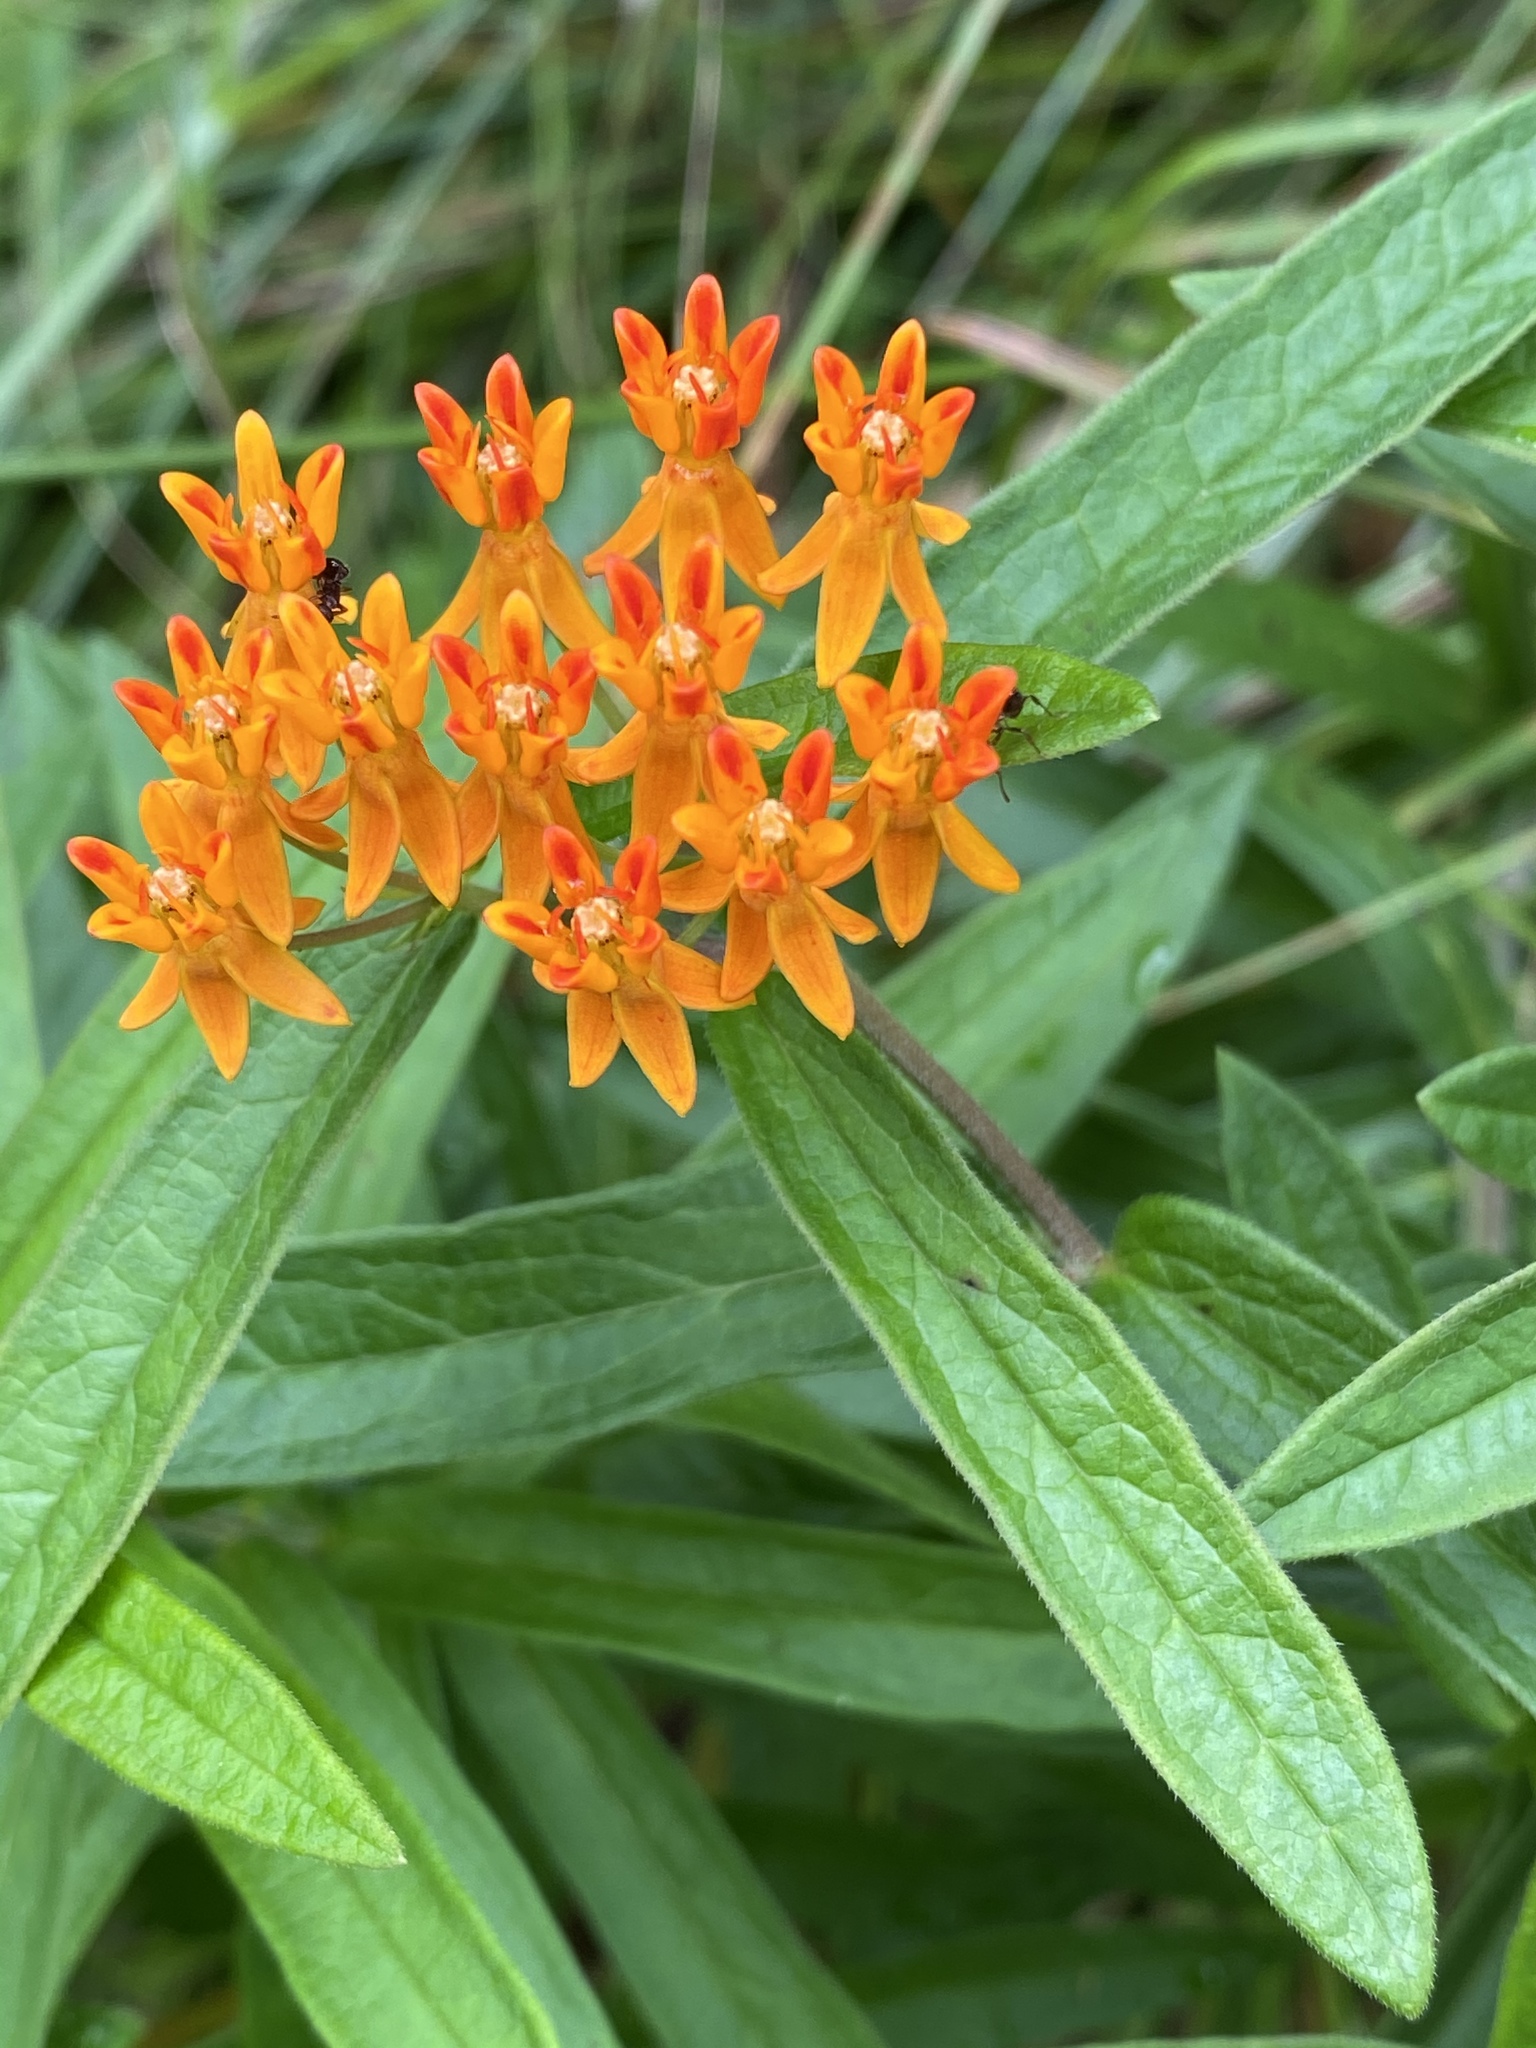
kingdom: Plantae
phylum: Tracheophyta
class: Magnoliopsida
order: Gentianales
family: Apocynaceae
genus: Asclepias
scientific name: Asclepias tuberosa
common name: Butterfly milkweed
